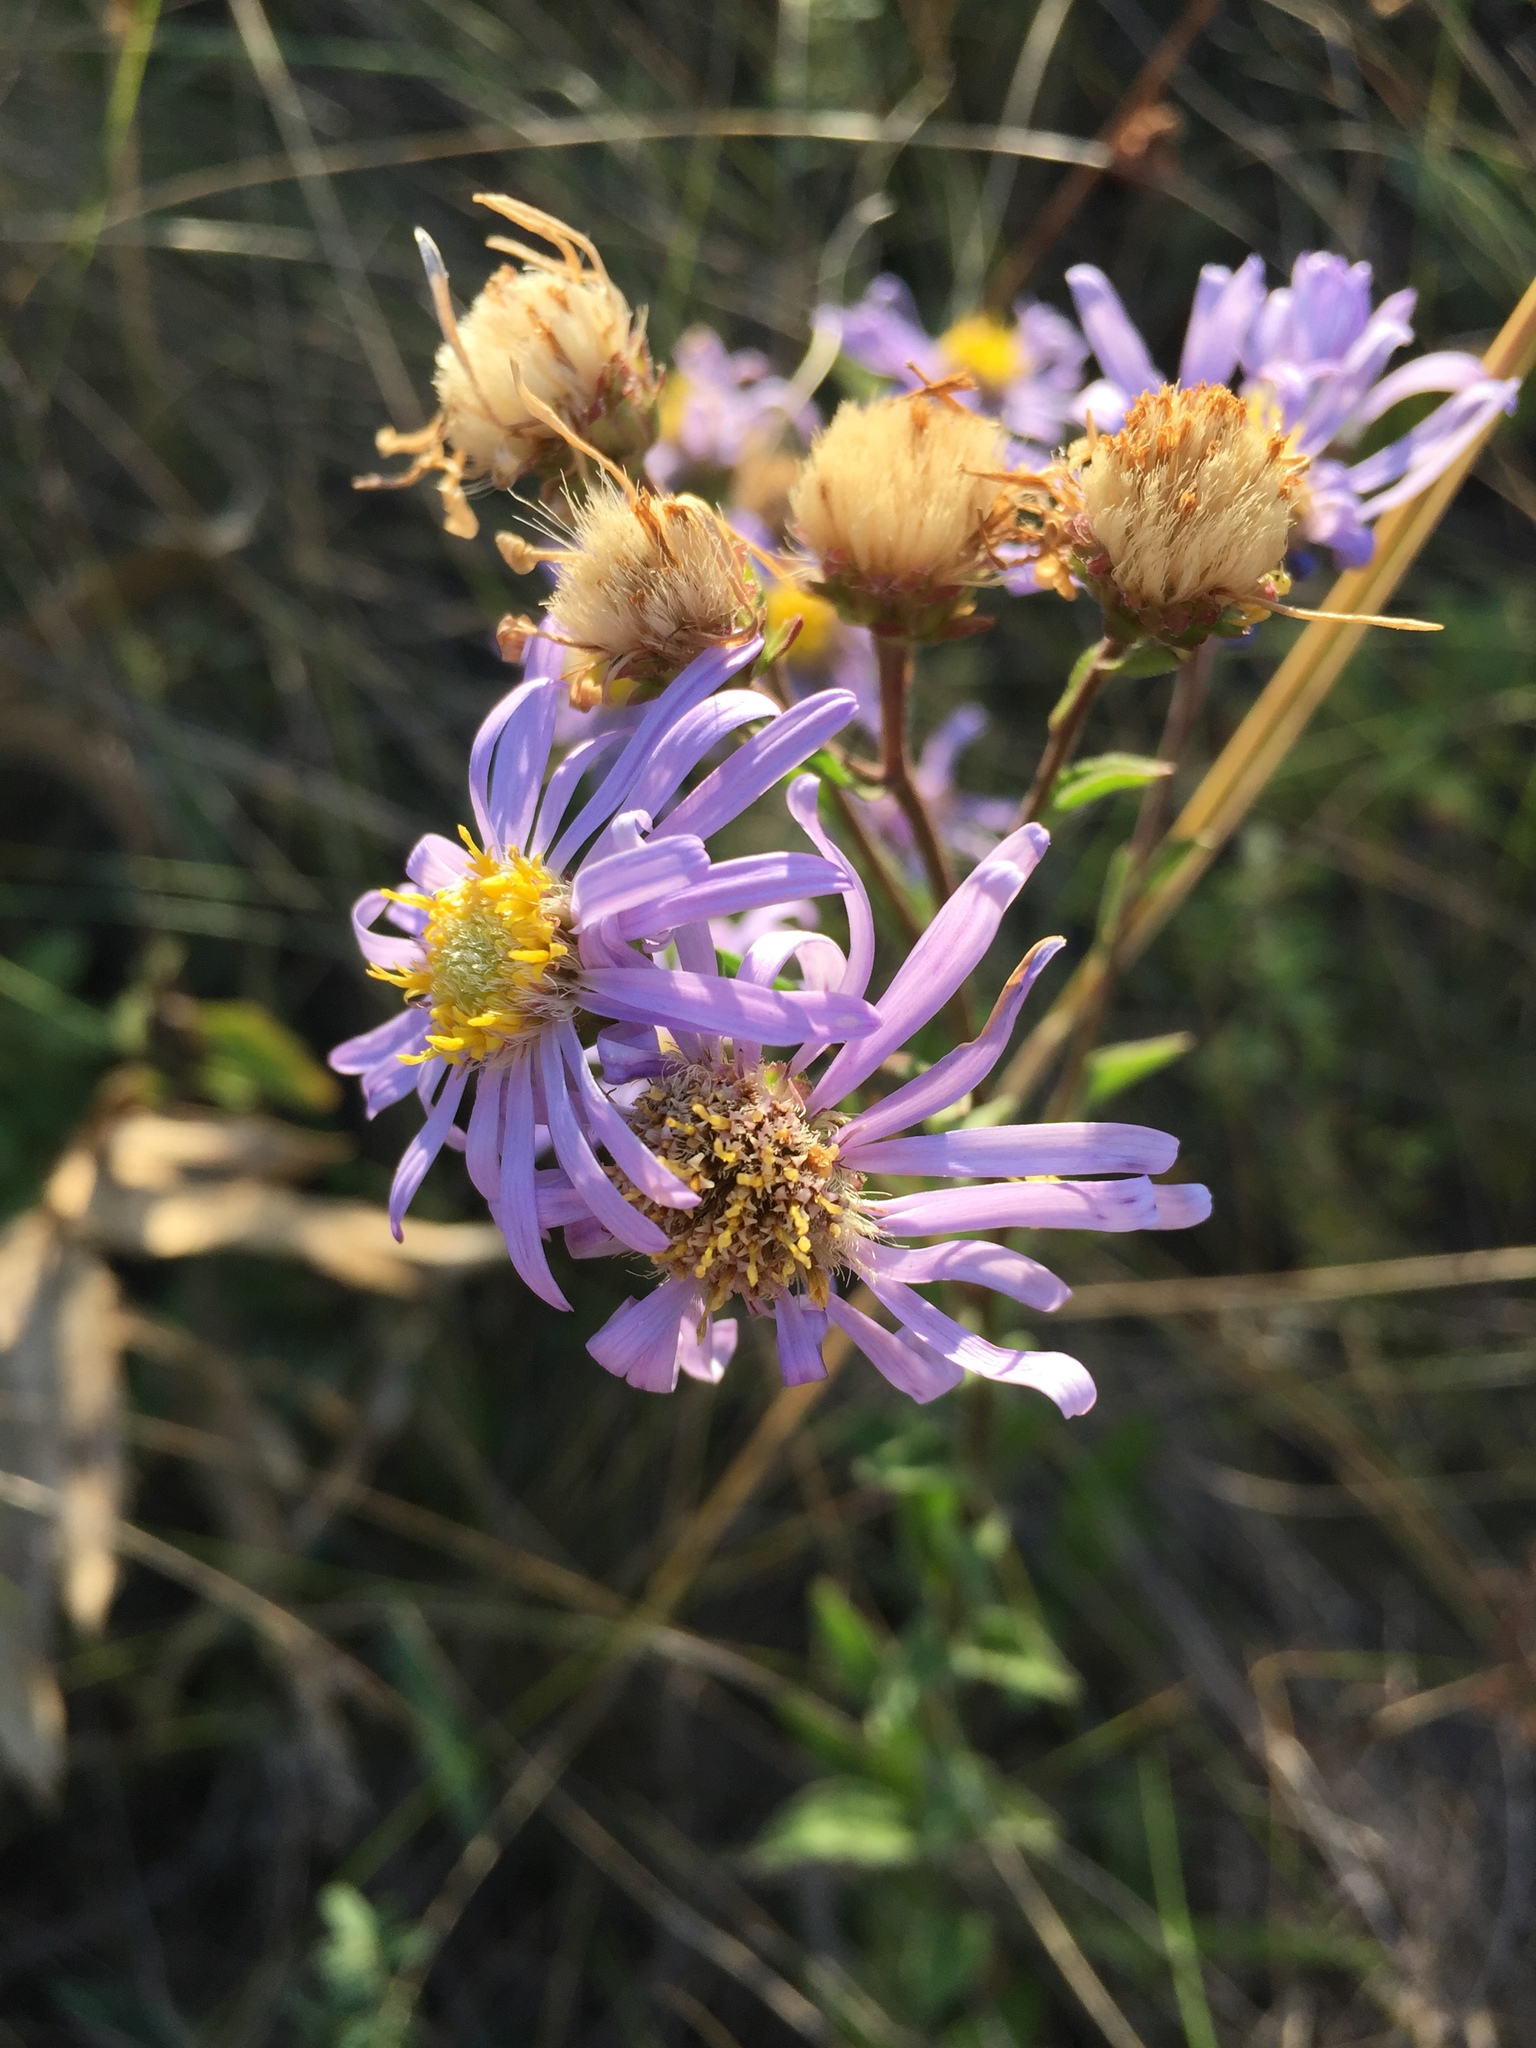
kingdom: Plantae
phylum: Tracheophyta
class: Magnoliopsida
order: Asterales
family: Asteraceae
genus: Aster
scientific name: Aster amellus
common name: European michaelmas daisy
